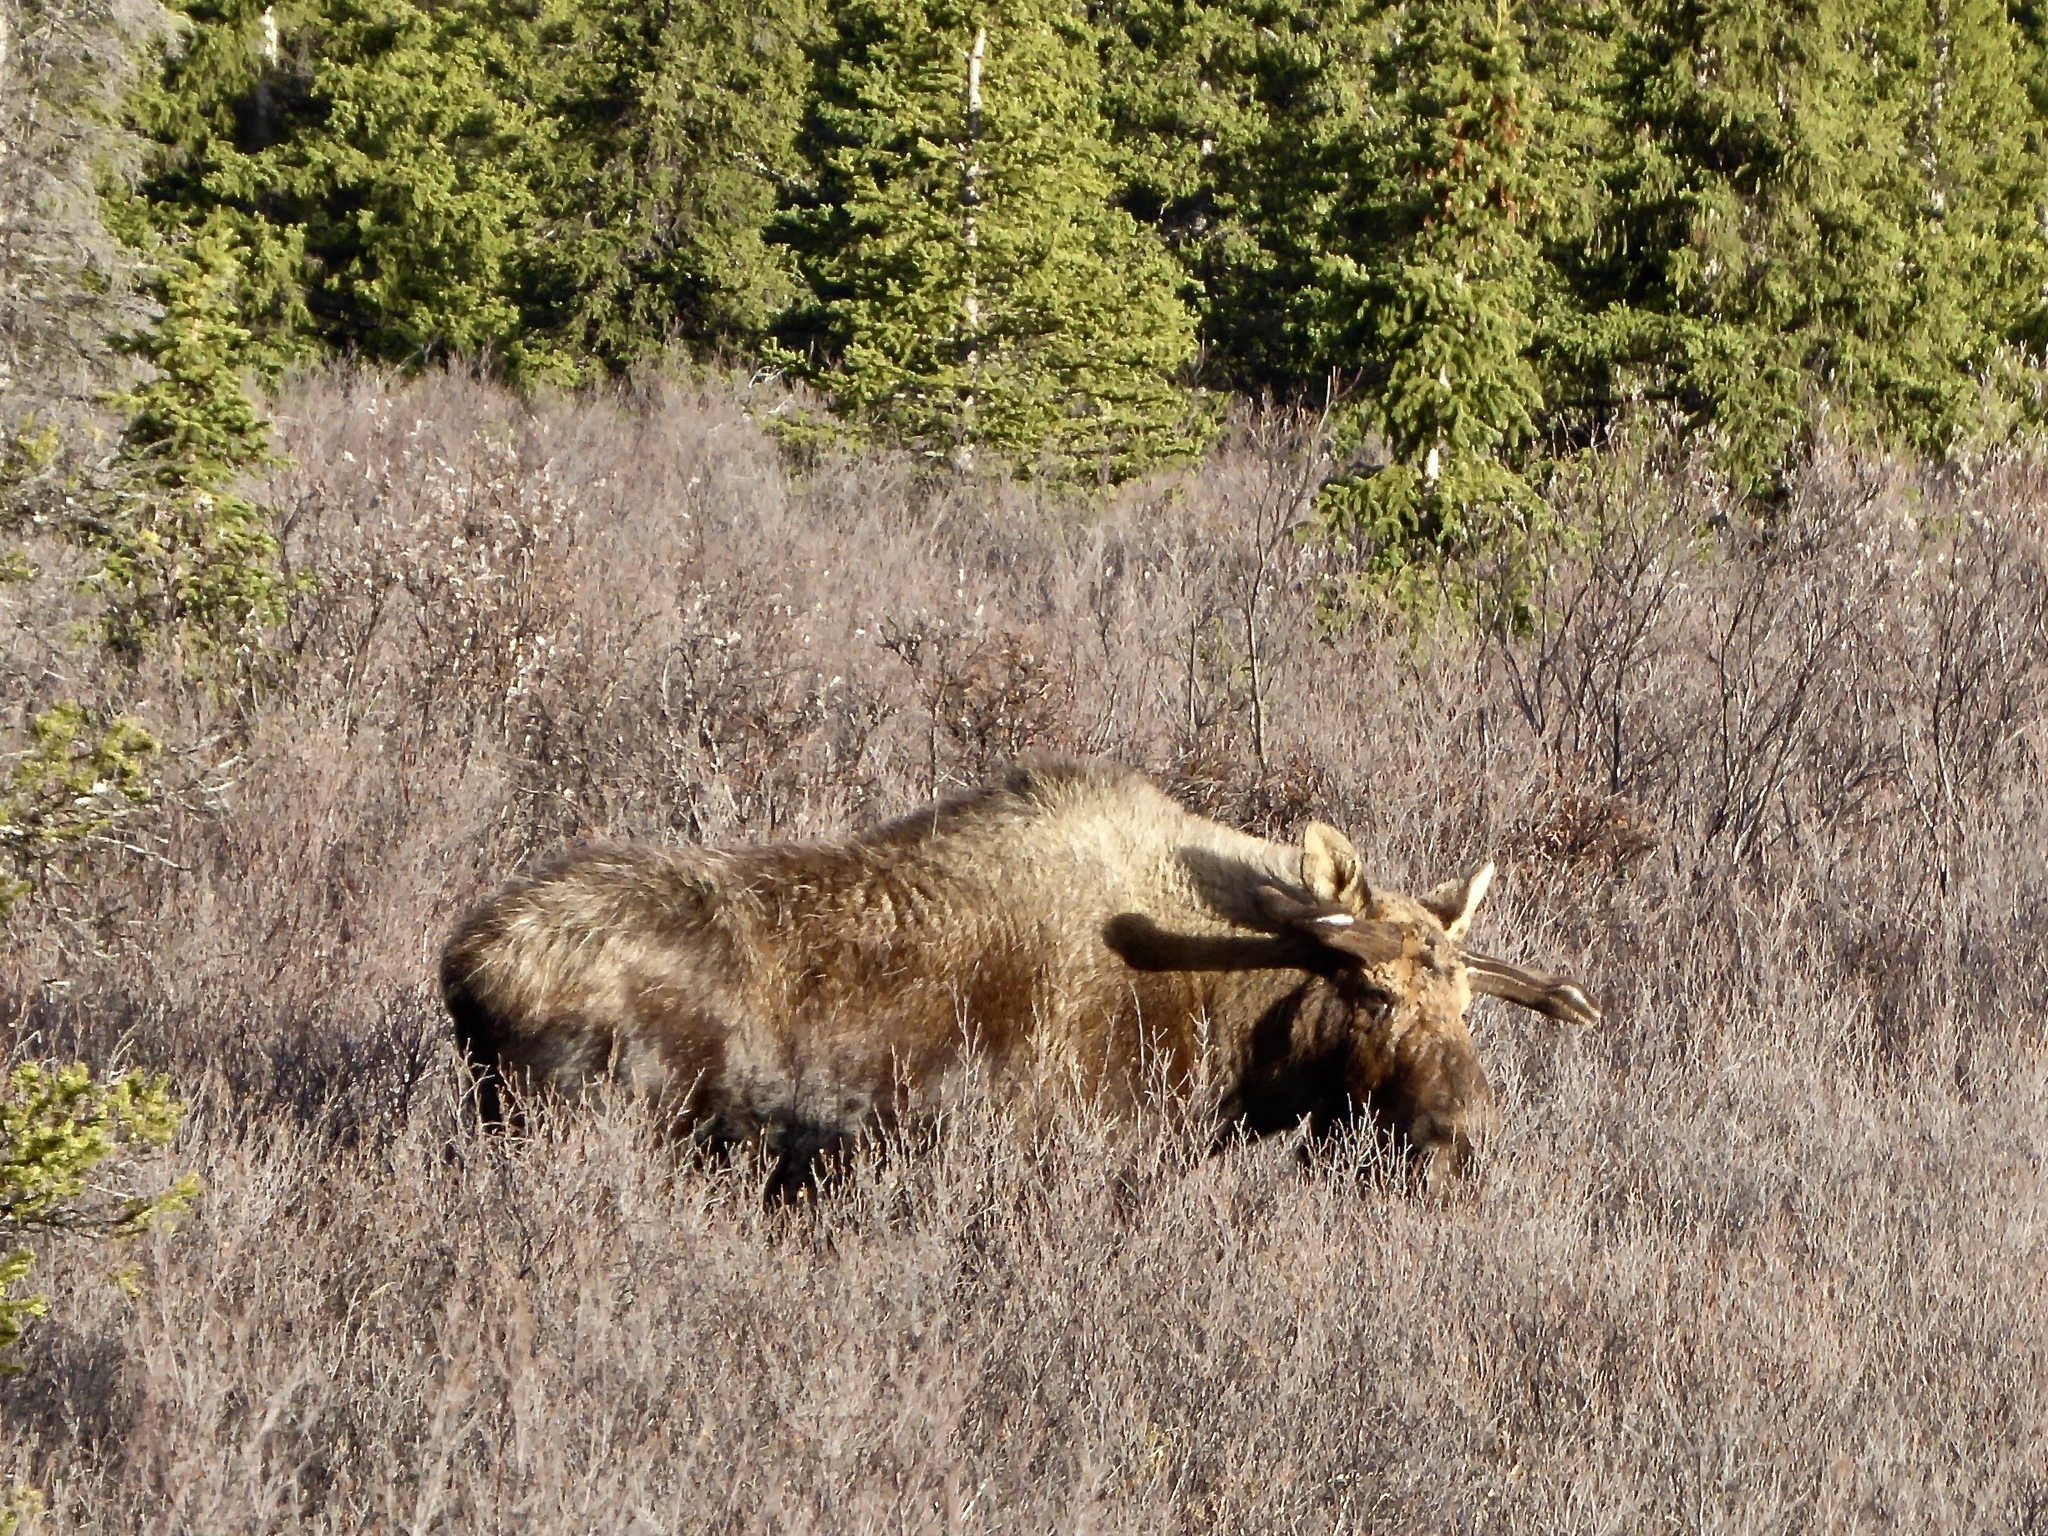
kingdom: Animalia
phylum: Chordata
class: Mammalia
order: Artiodactyla
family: Cervidae
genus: Alces
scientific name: Alces alces
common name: Moose
